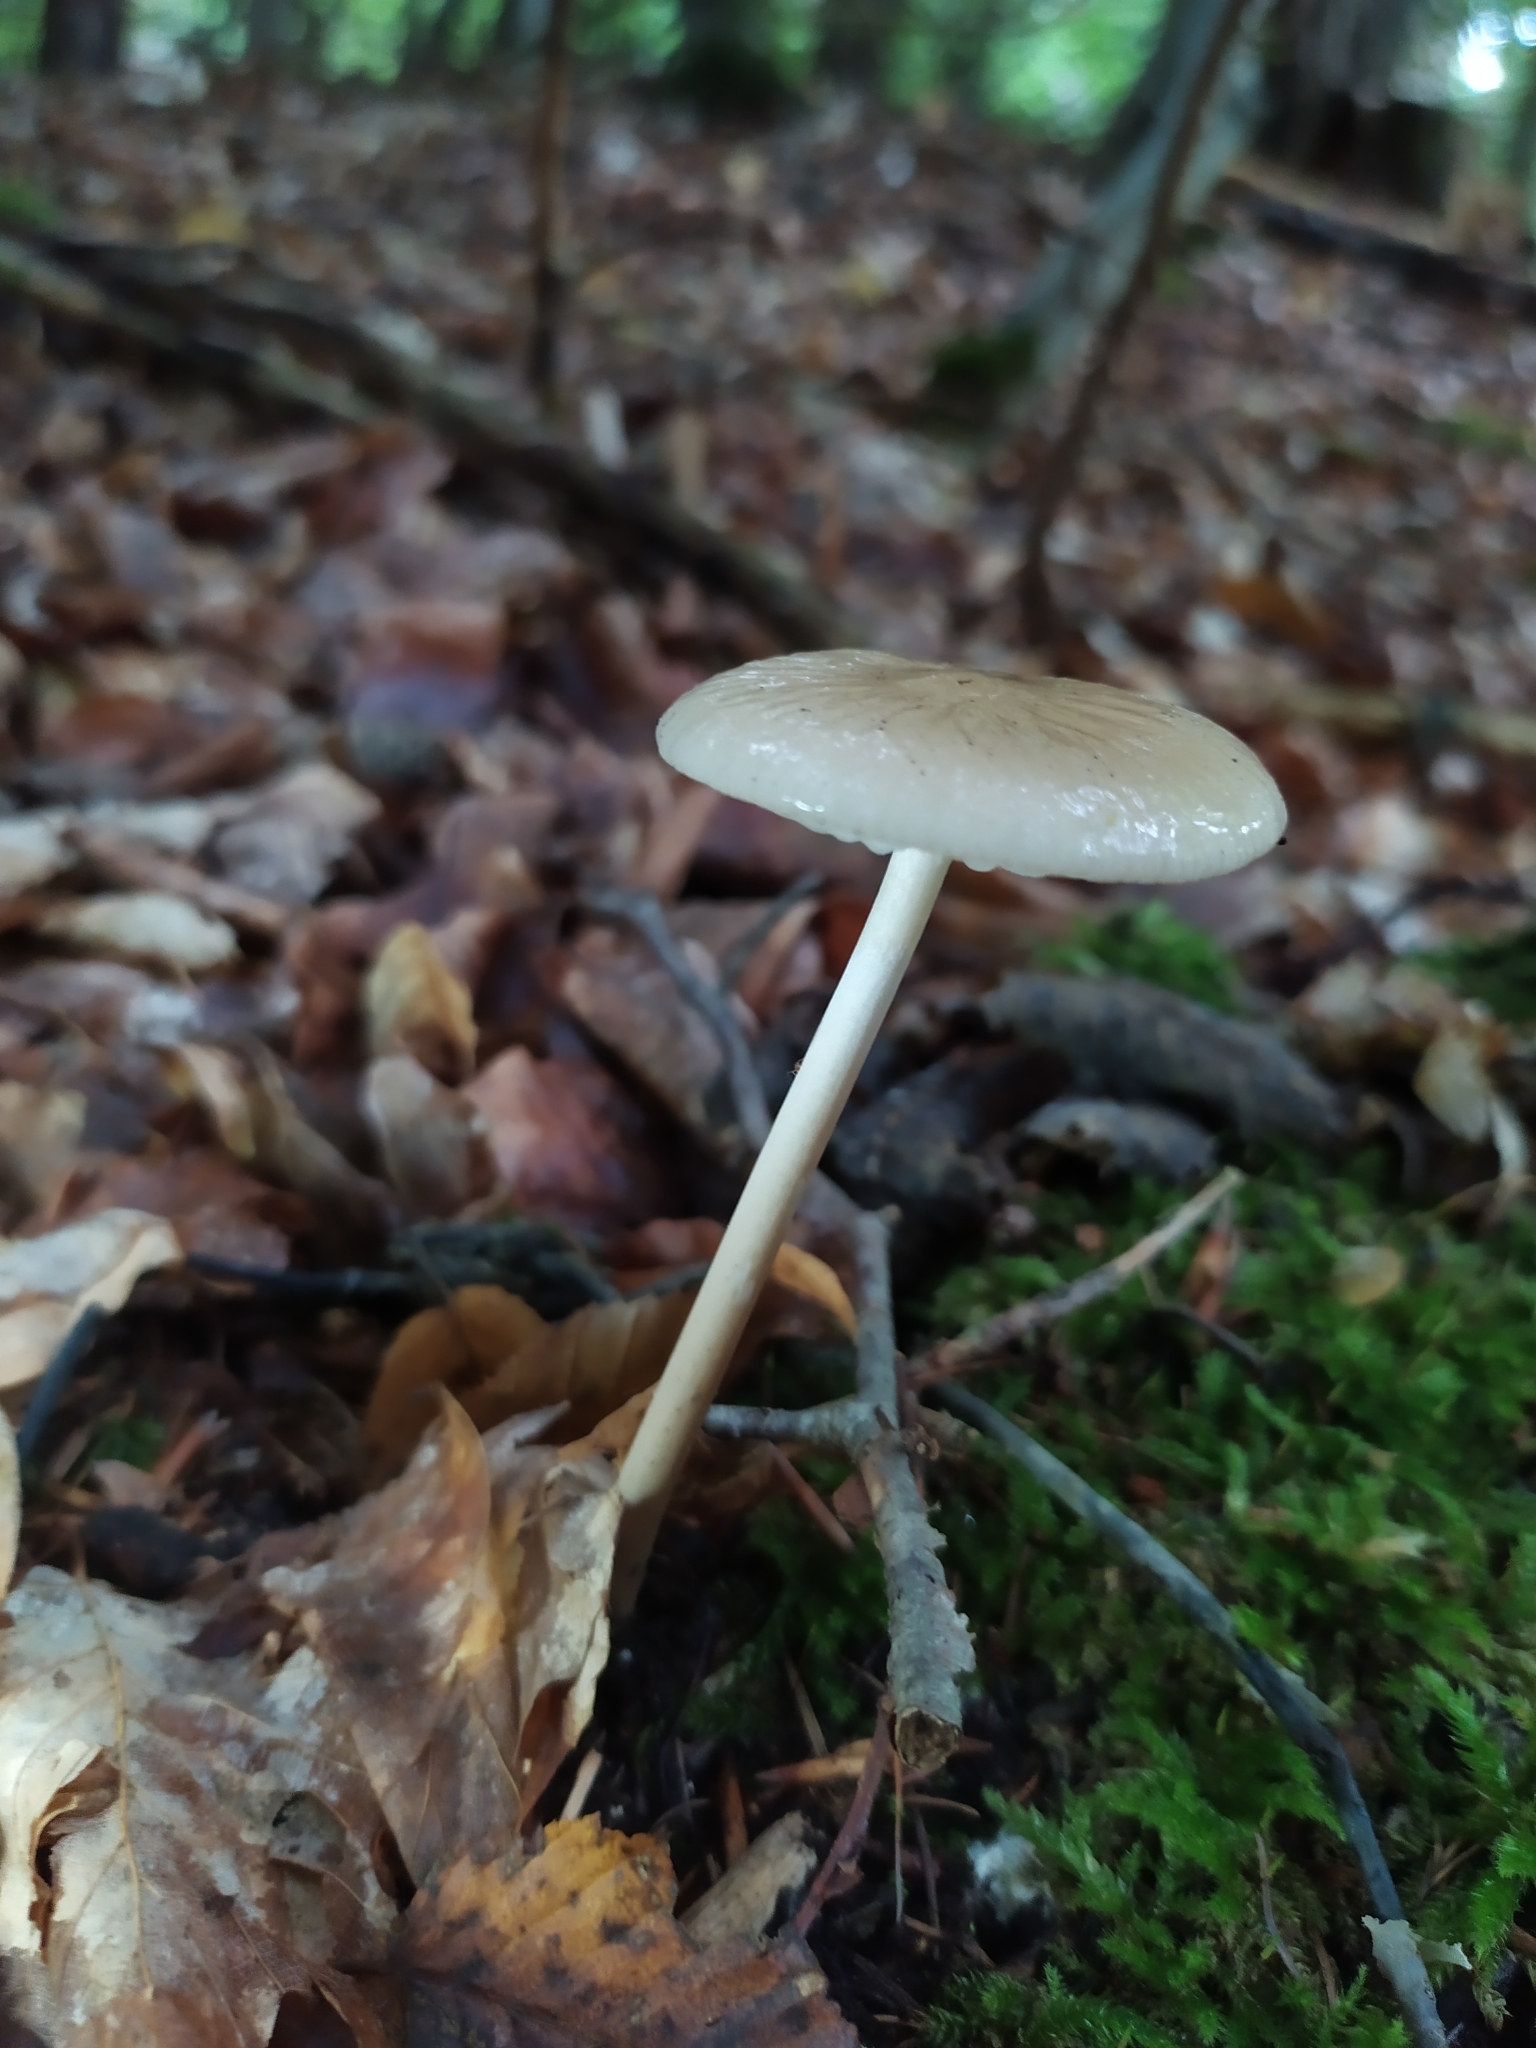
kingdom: Fungi
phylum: Basidiomycota
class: Agaricomycetes
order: Agaricales
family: Physalacriaceae
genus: Hymenopellis
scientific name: Hymenopellis radicata
